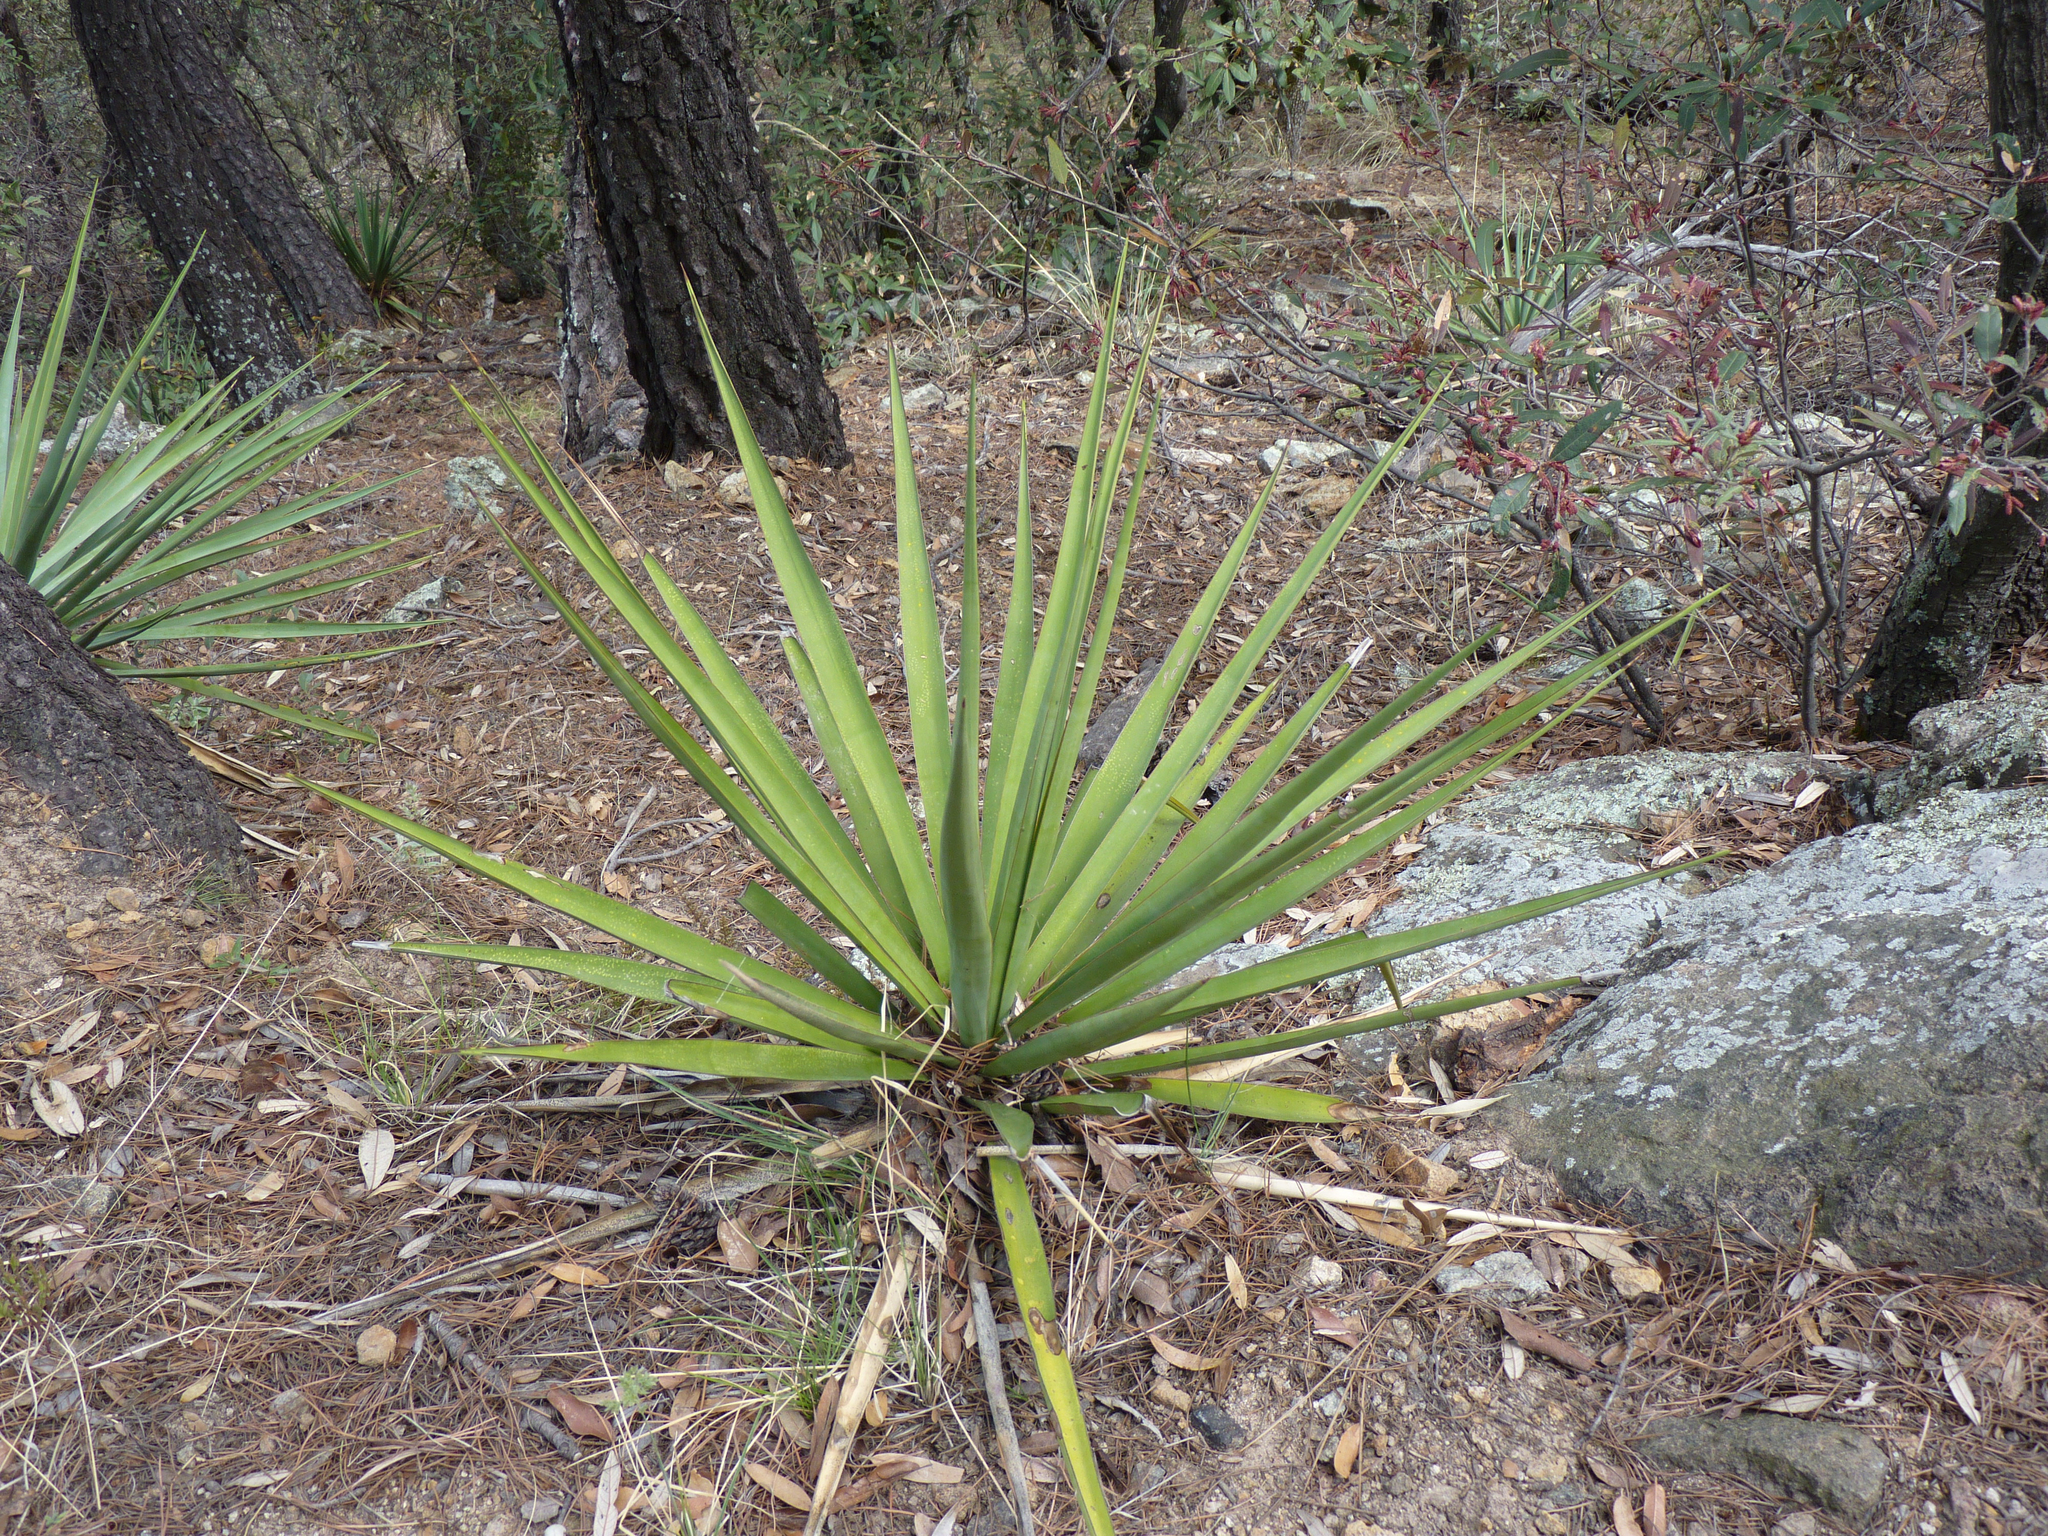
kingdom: Plantae
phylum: Tracheophyta
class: Liliopsida
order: Asparagales
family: Asparagaceae
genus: Yucca
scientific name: Yucca madrensis
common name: Hoary yucca
